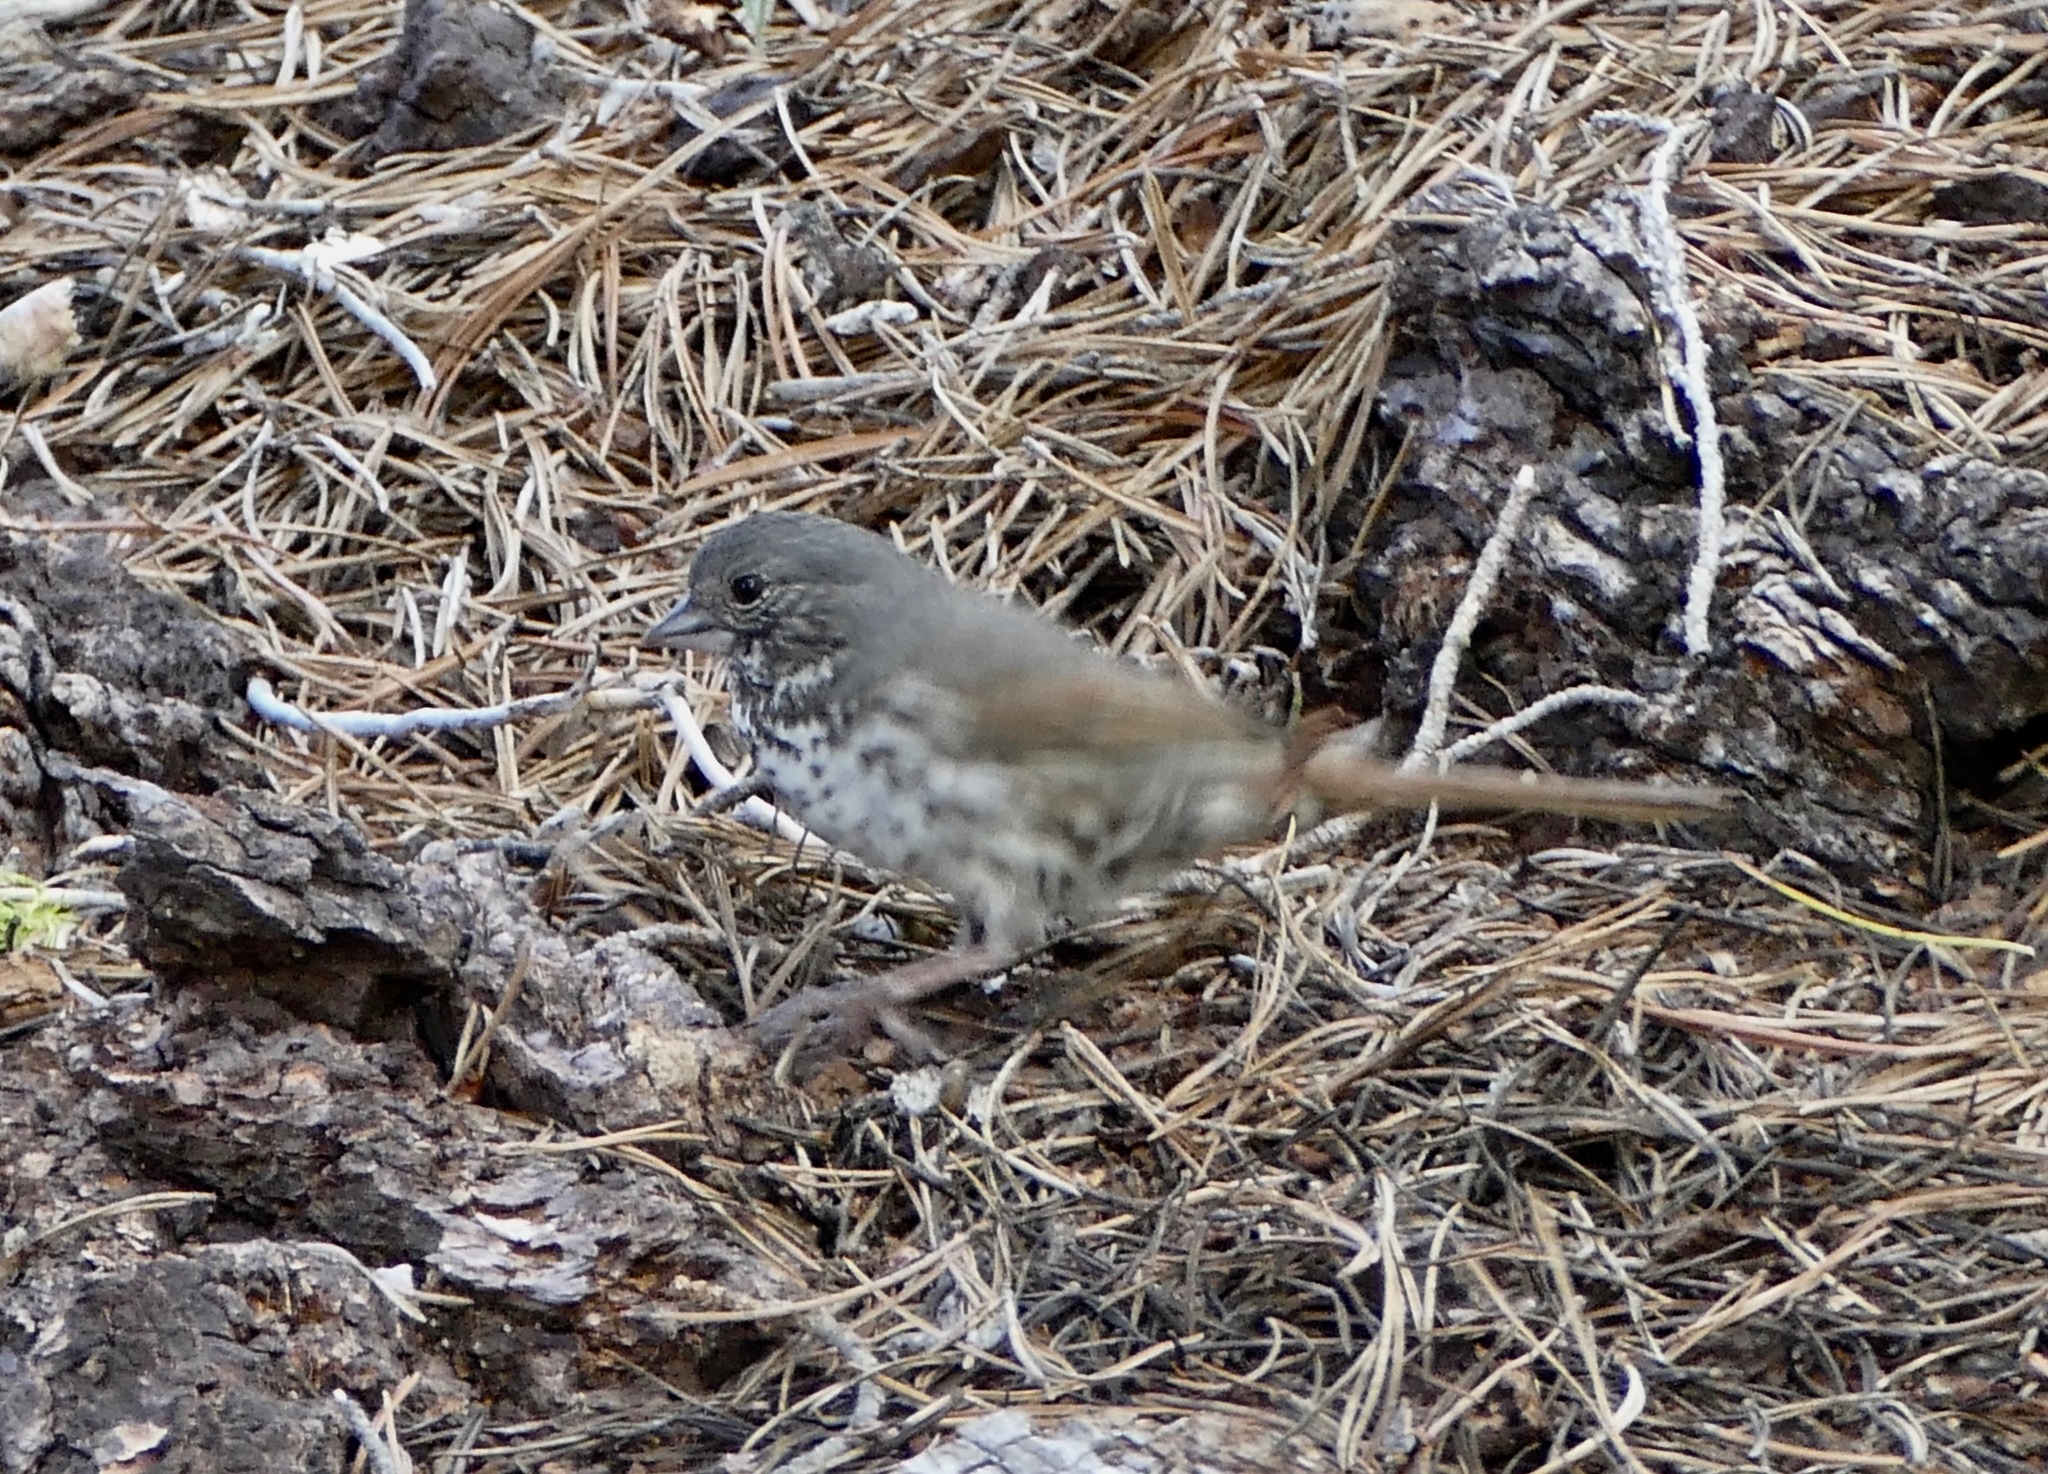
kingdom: Animalia
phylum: Chordata
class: Aves
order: Passeriformes
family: Passerellidae
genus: Passerella
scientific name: Passerella iliaca
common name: Fox sparrow
